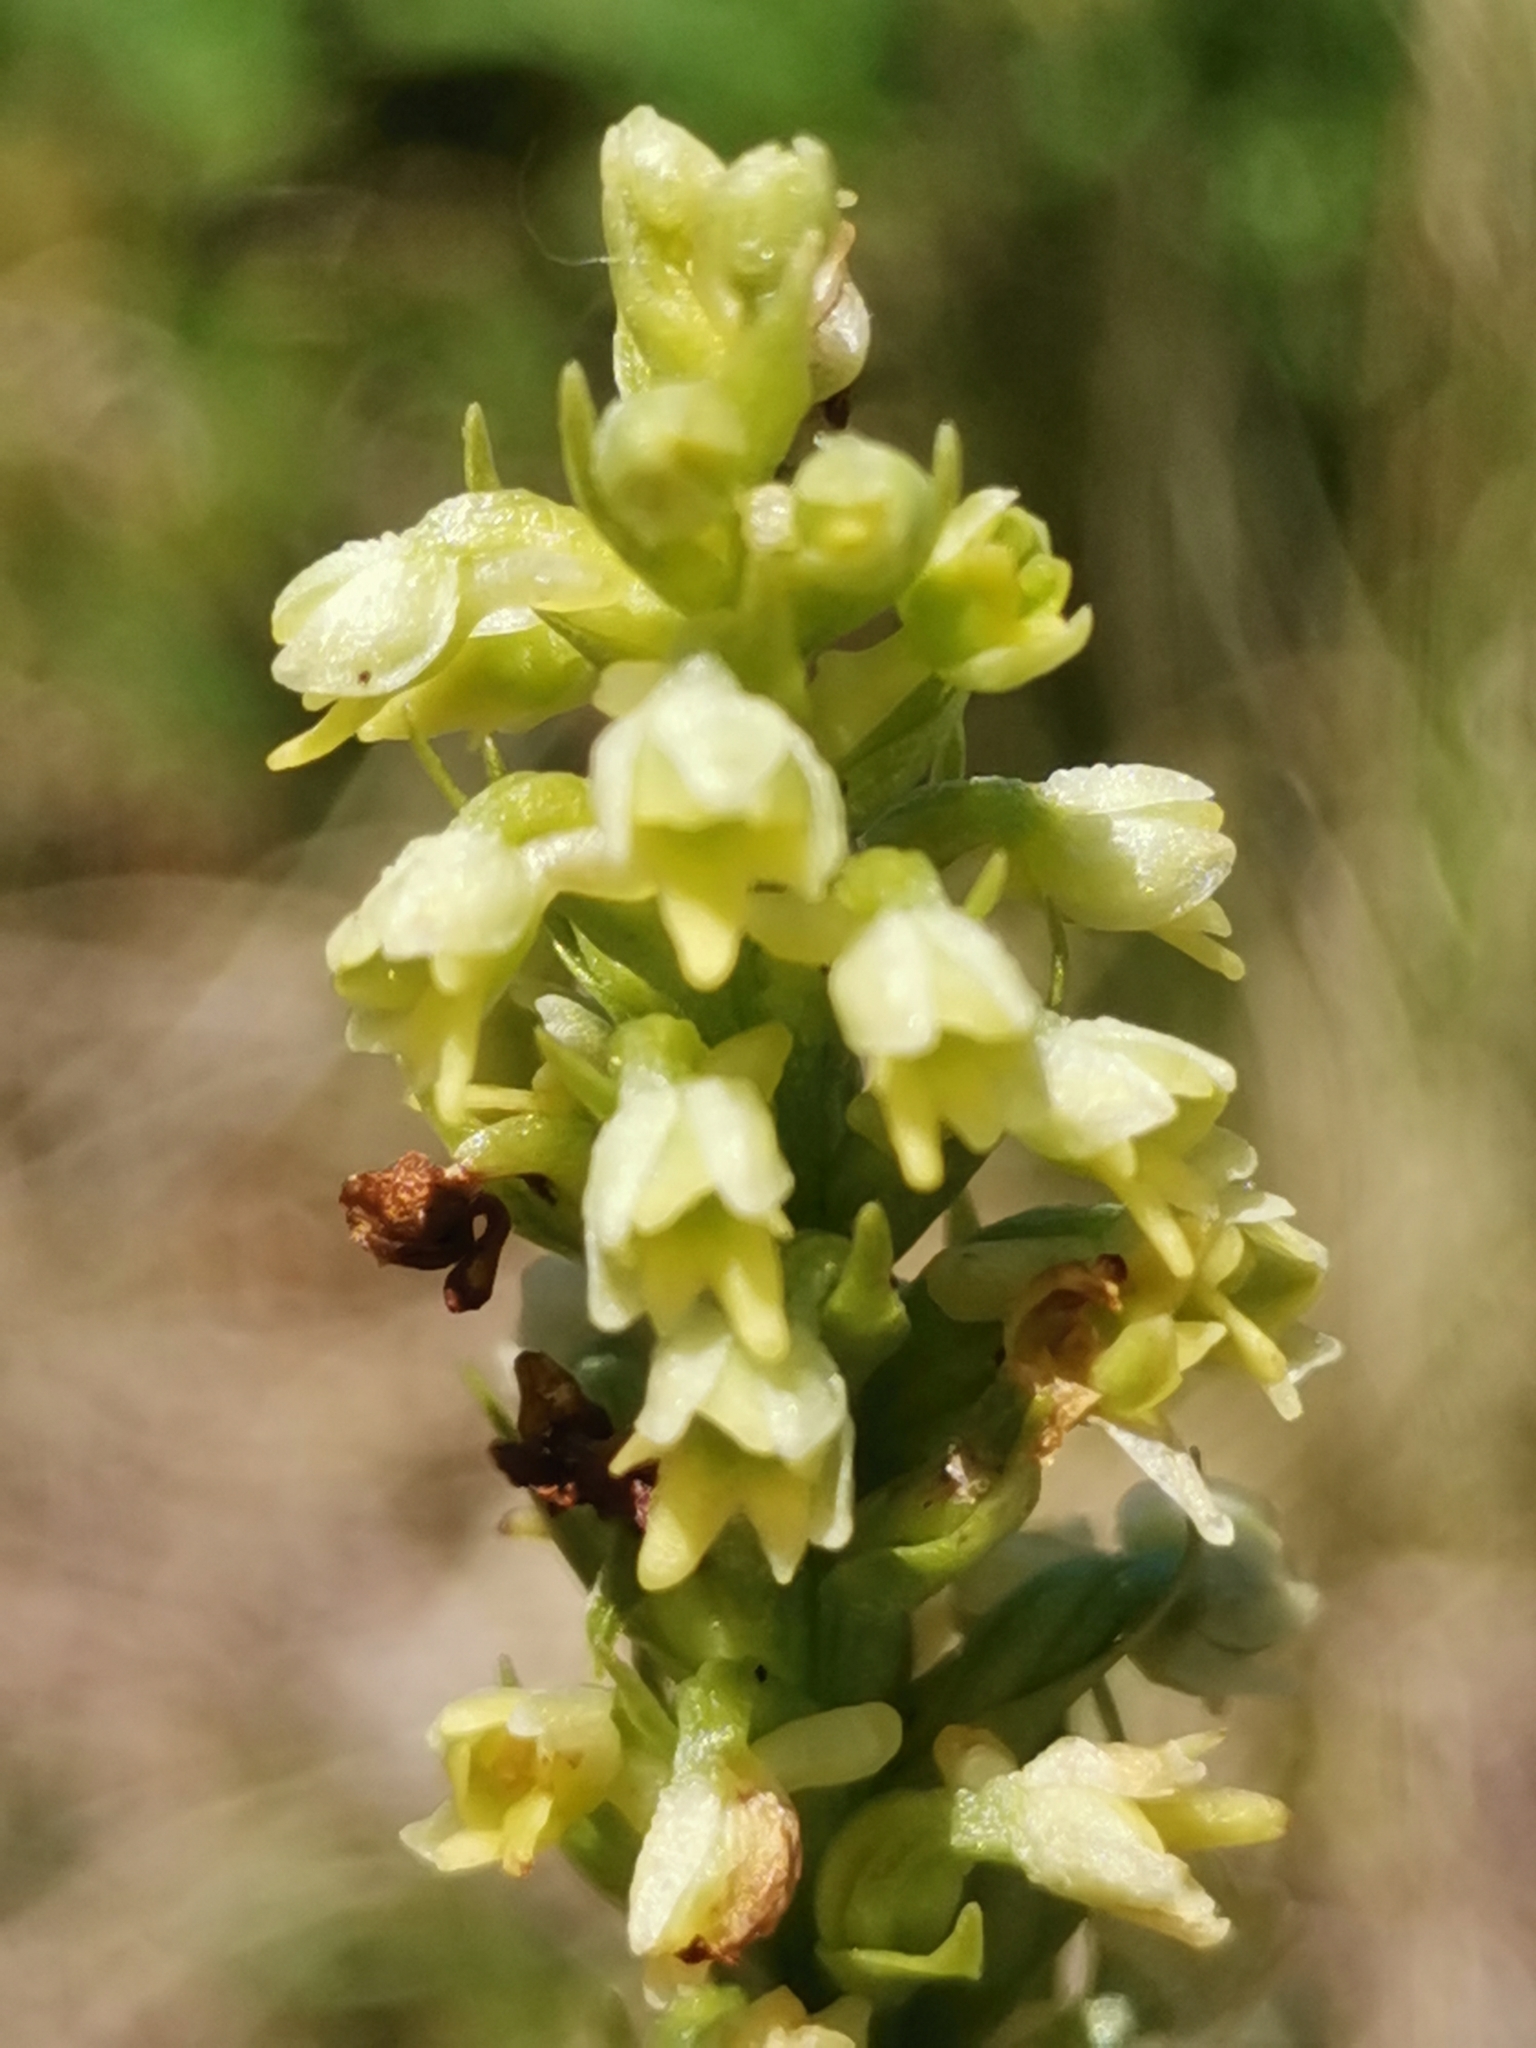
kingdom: Plantae
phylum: Tracheophyta
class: Liliopsida
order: Asparagales
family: Orchidaceae
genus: Pseudorchis
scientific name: Pseudorchis albida
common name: Small-white orchid
